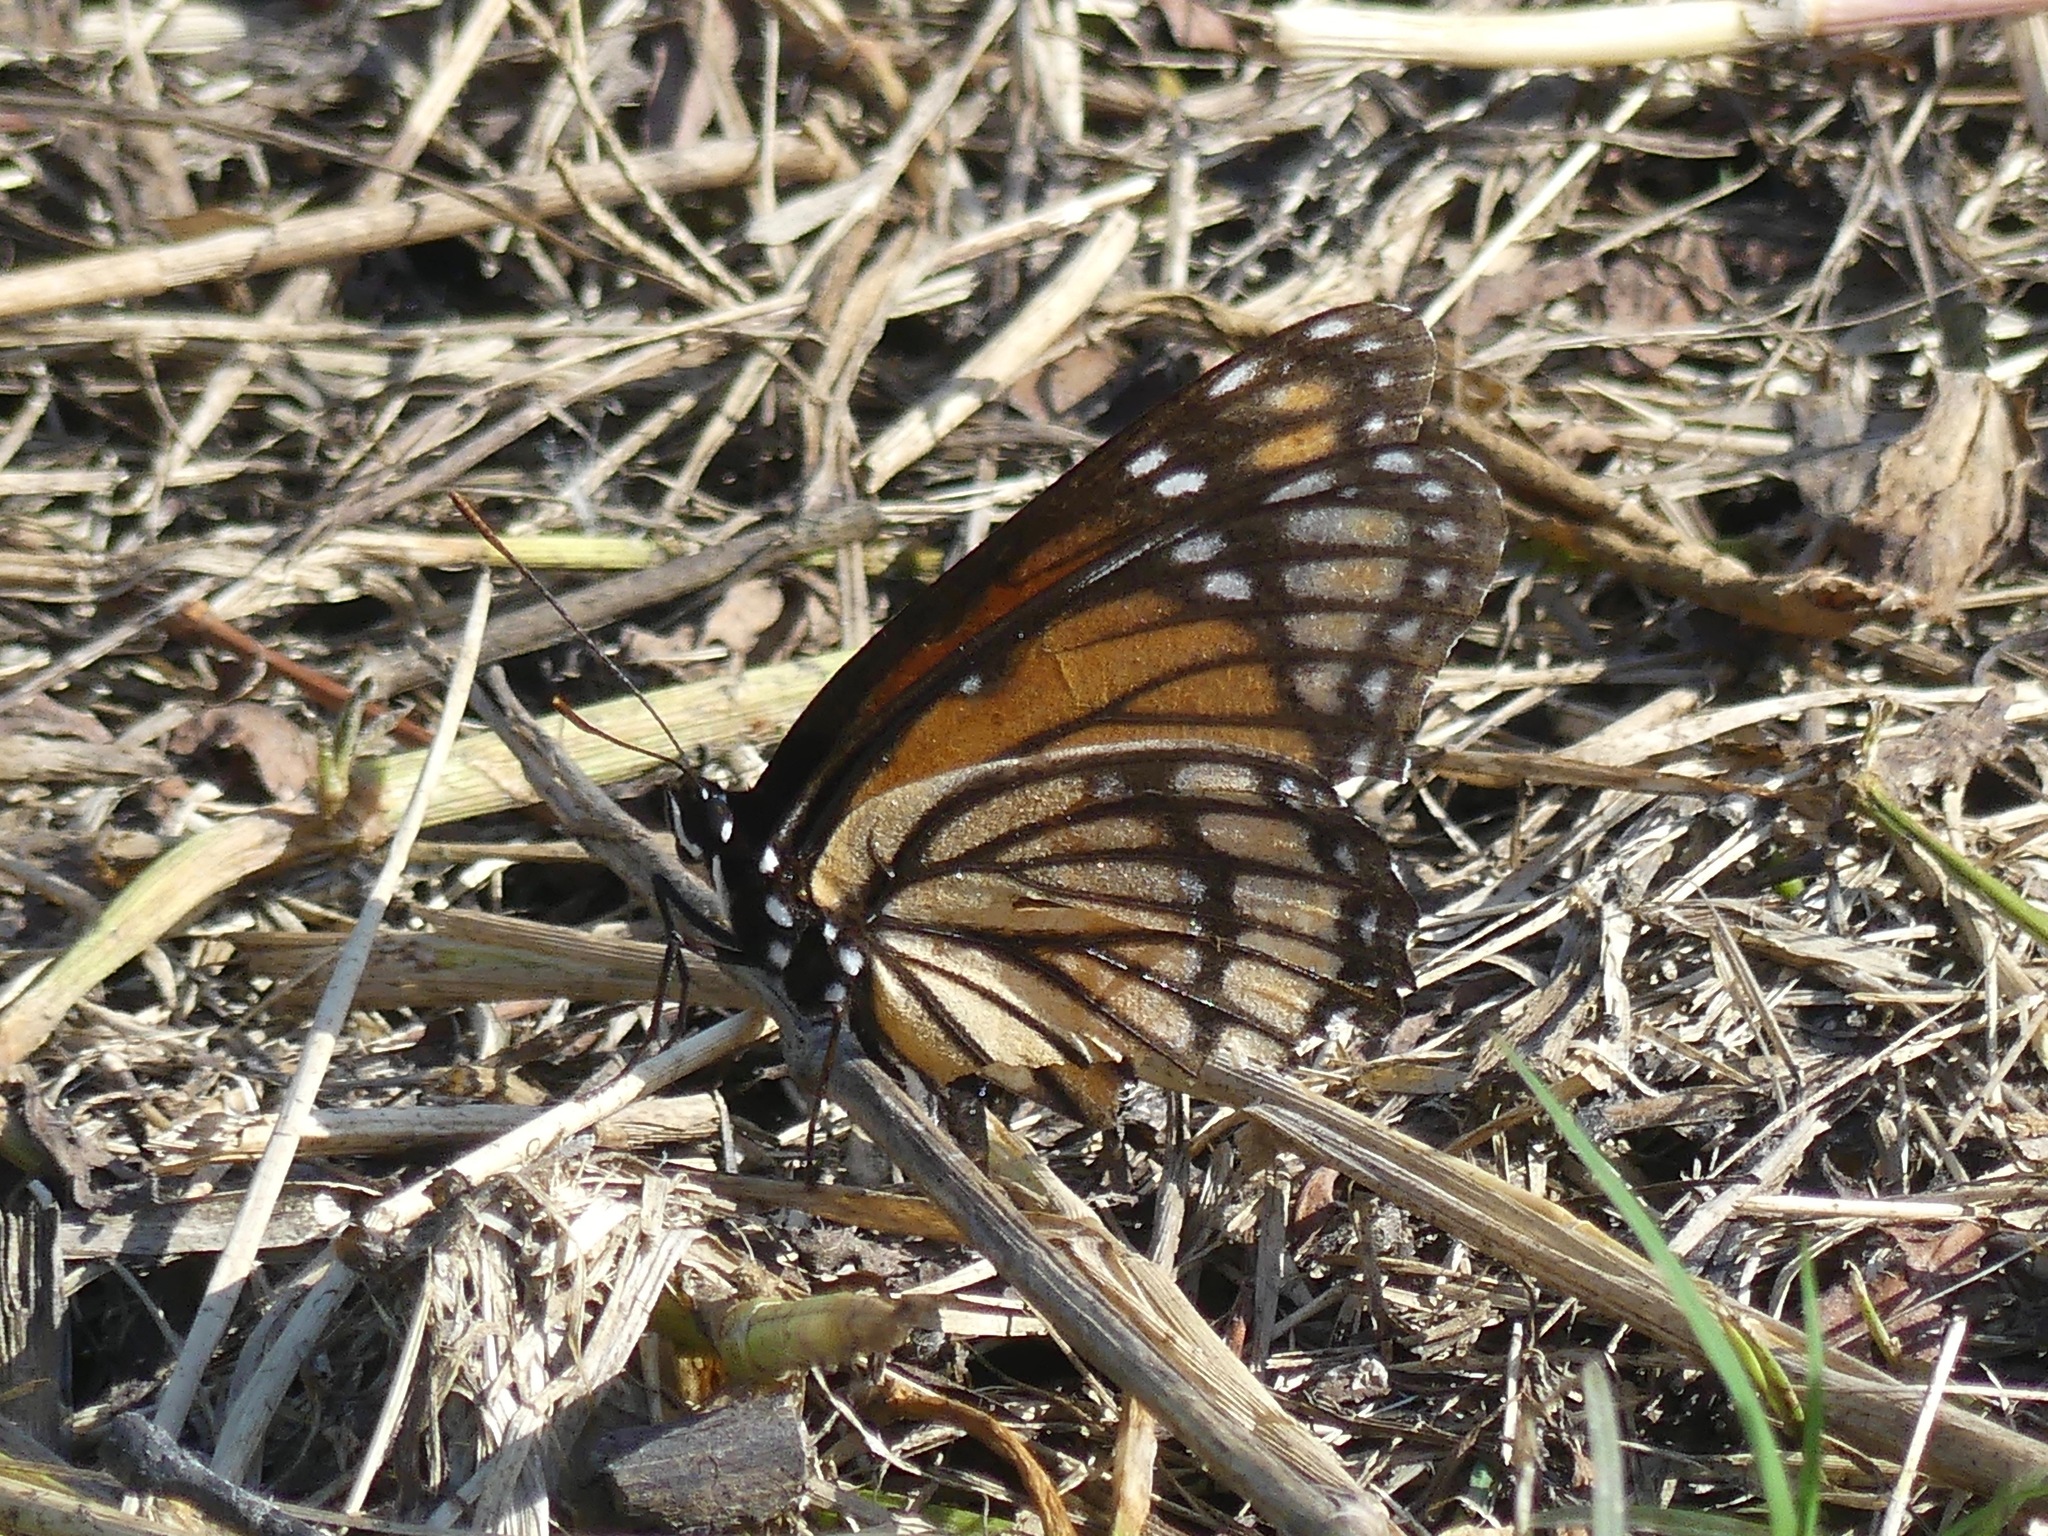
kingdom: Animalia
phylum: Arthropoda
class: Insecta
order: Lepidoptera
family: Nymphalidae
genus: Limenitis
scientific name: Limenitis archippus
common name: Viceroy
